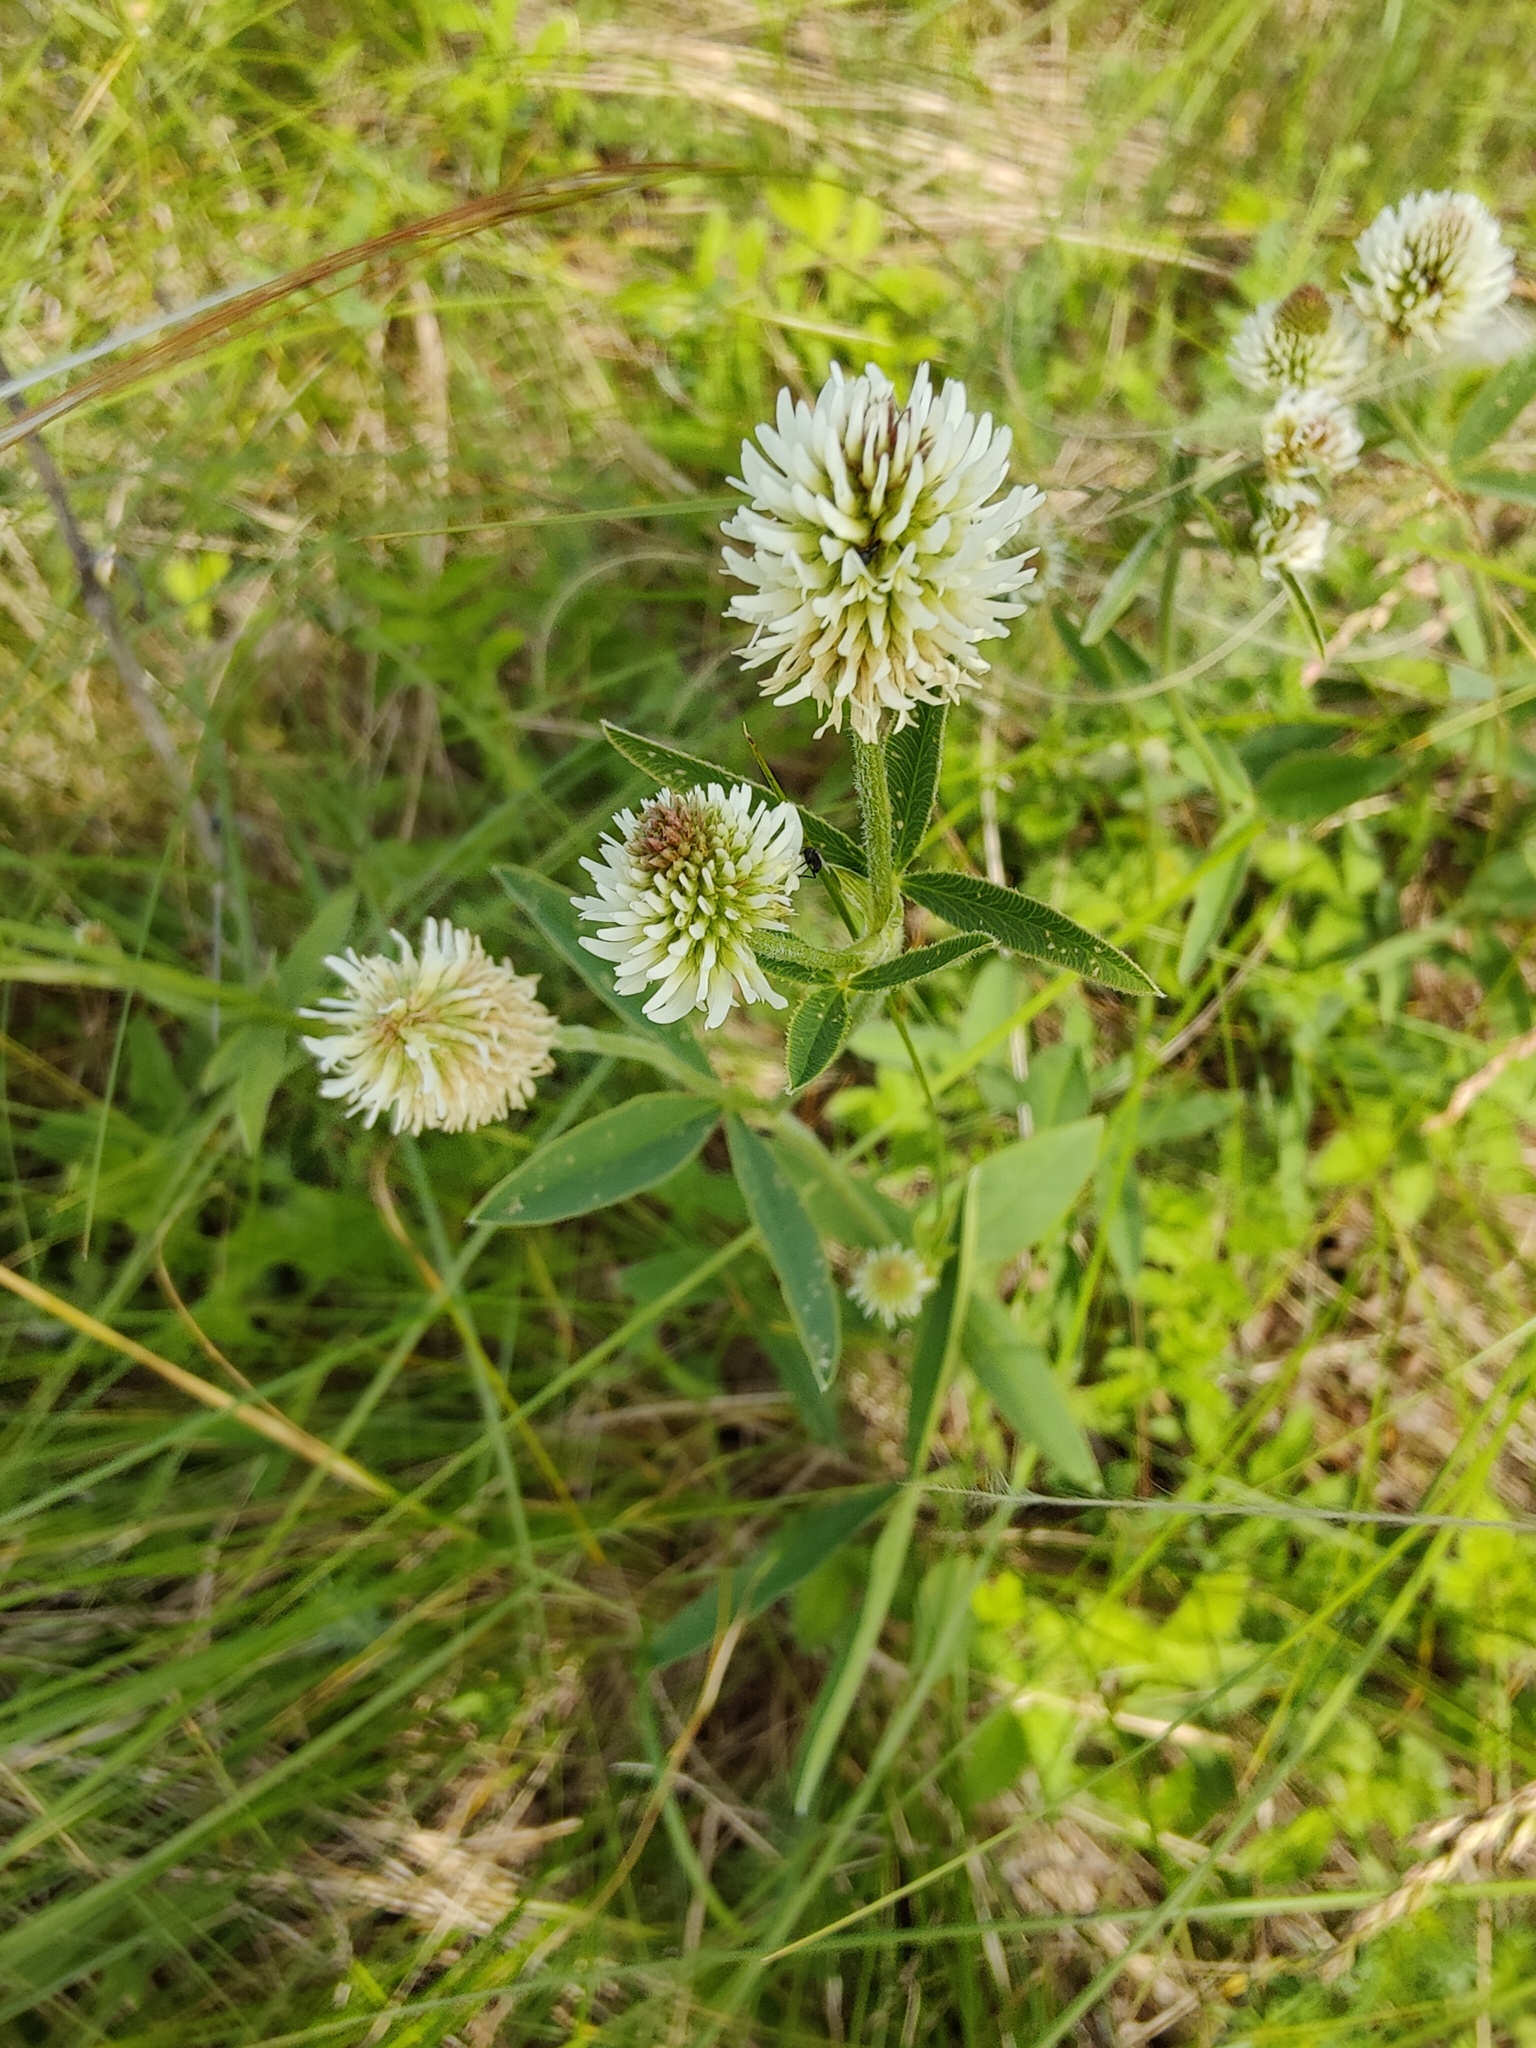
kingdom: Plantae
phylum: Tracheophyta
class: Magnoliopsida
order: Fabales
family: Fabaceae
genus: Trifolium
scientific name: Trifolium montanum
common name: Mountain clover
